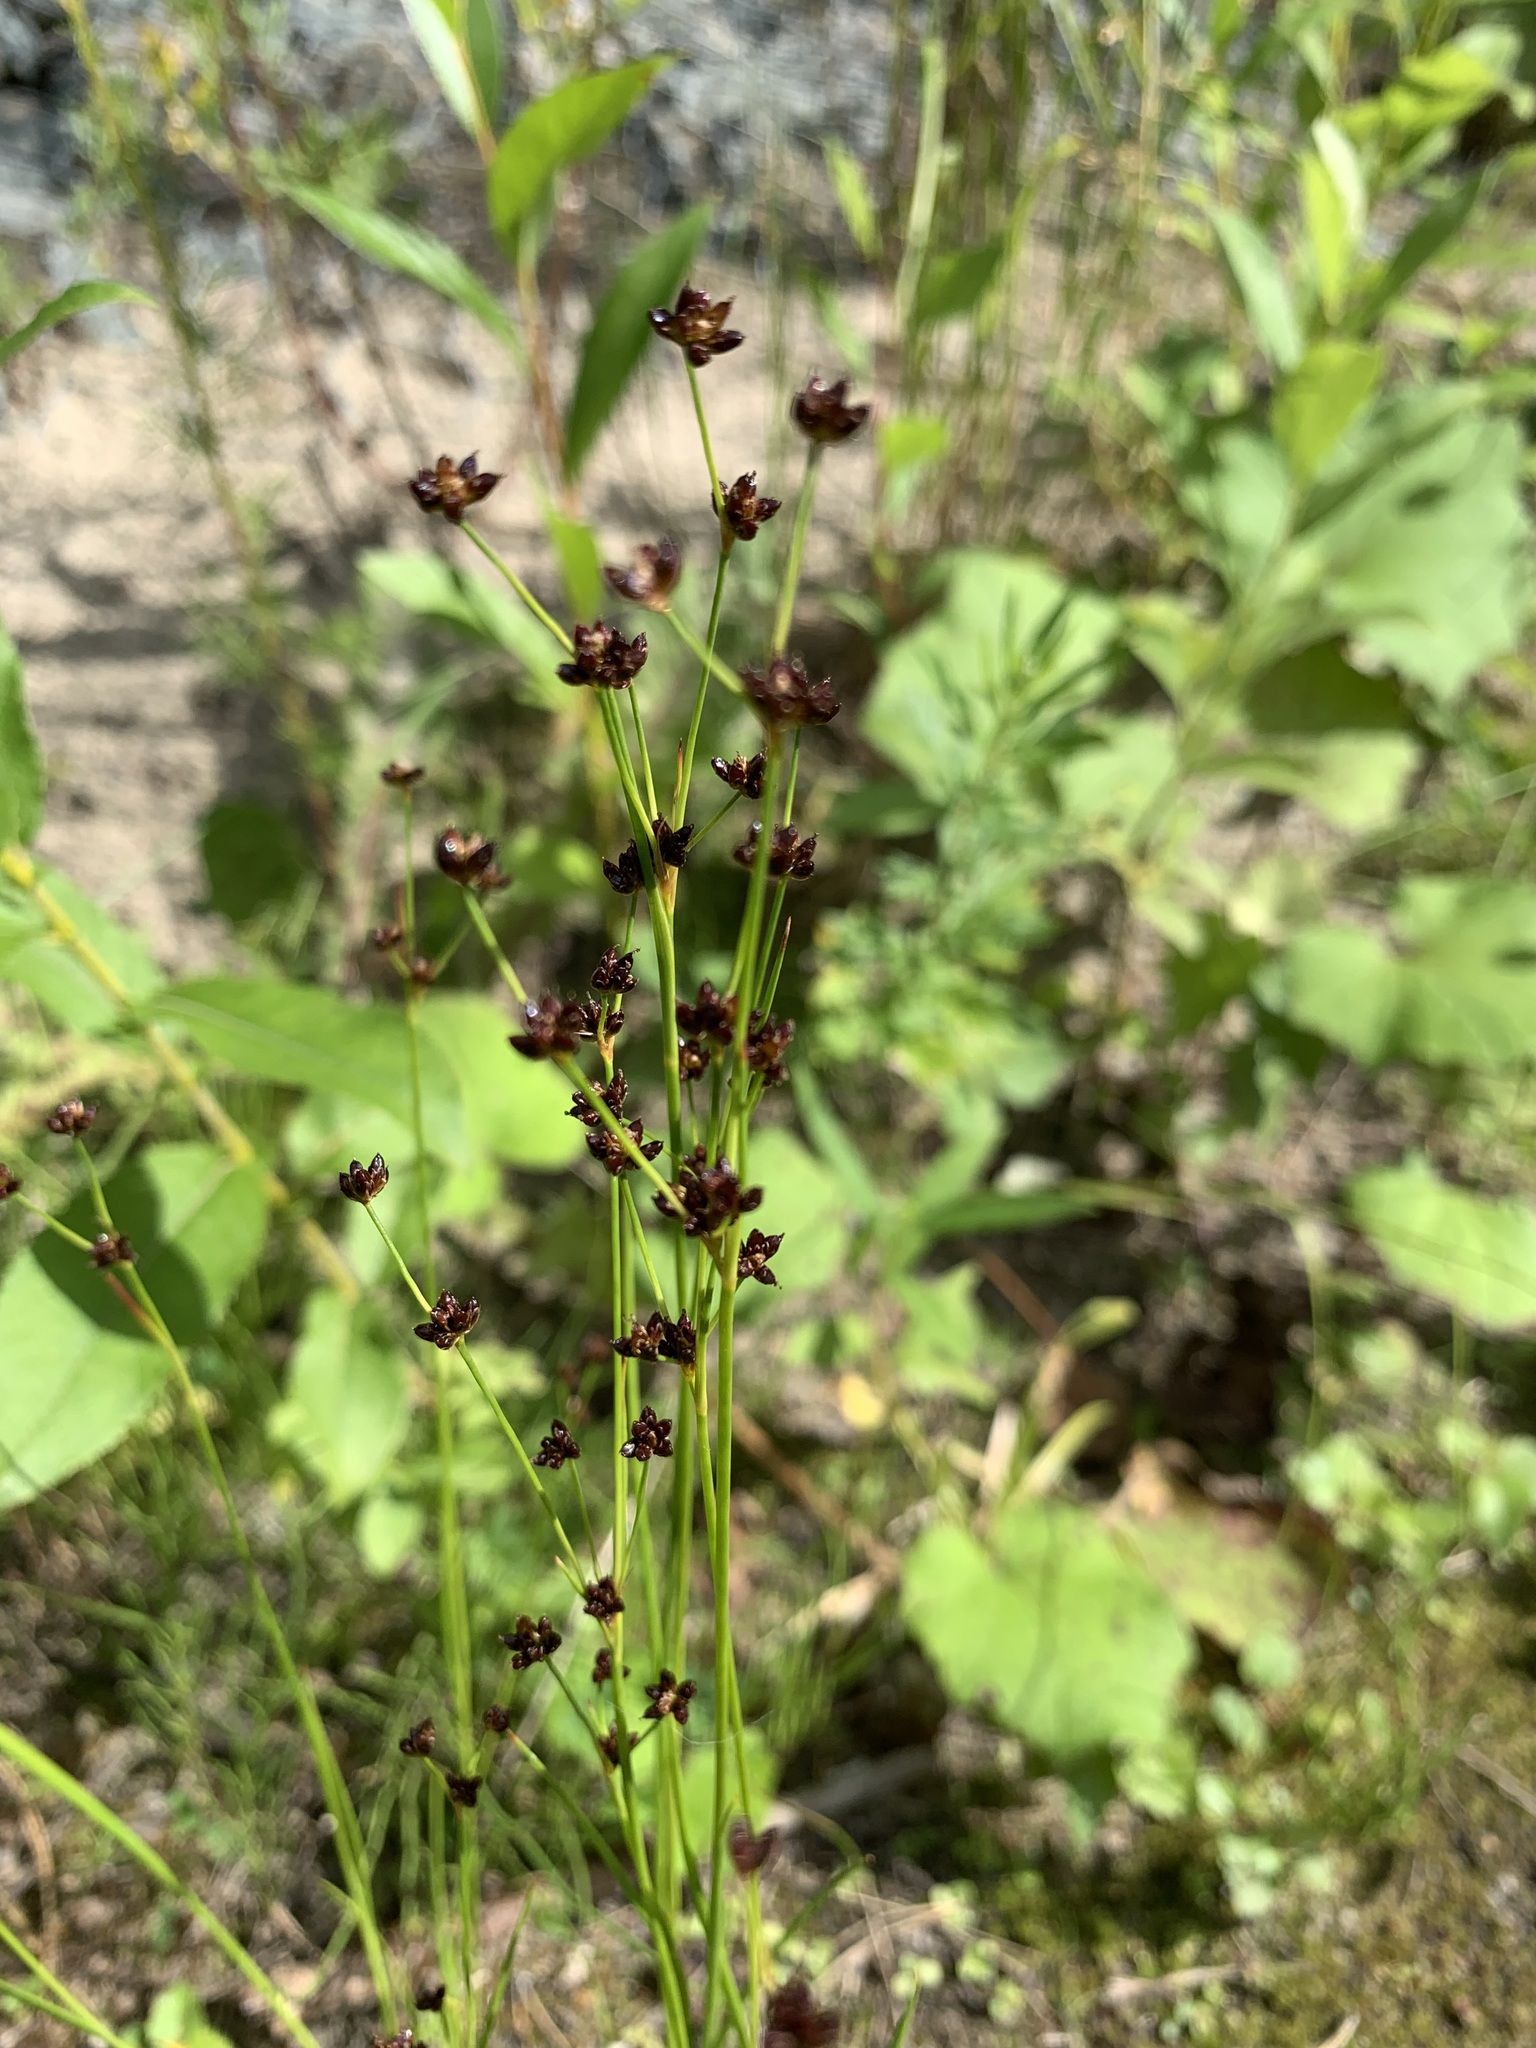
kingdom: Plantae
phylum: Tracheophyta
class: Liliopsida
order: Poales
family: Juncaceae
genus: Juncus
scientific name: Juncus alpinoarticulatus
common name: Alpine rush
